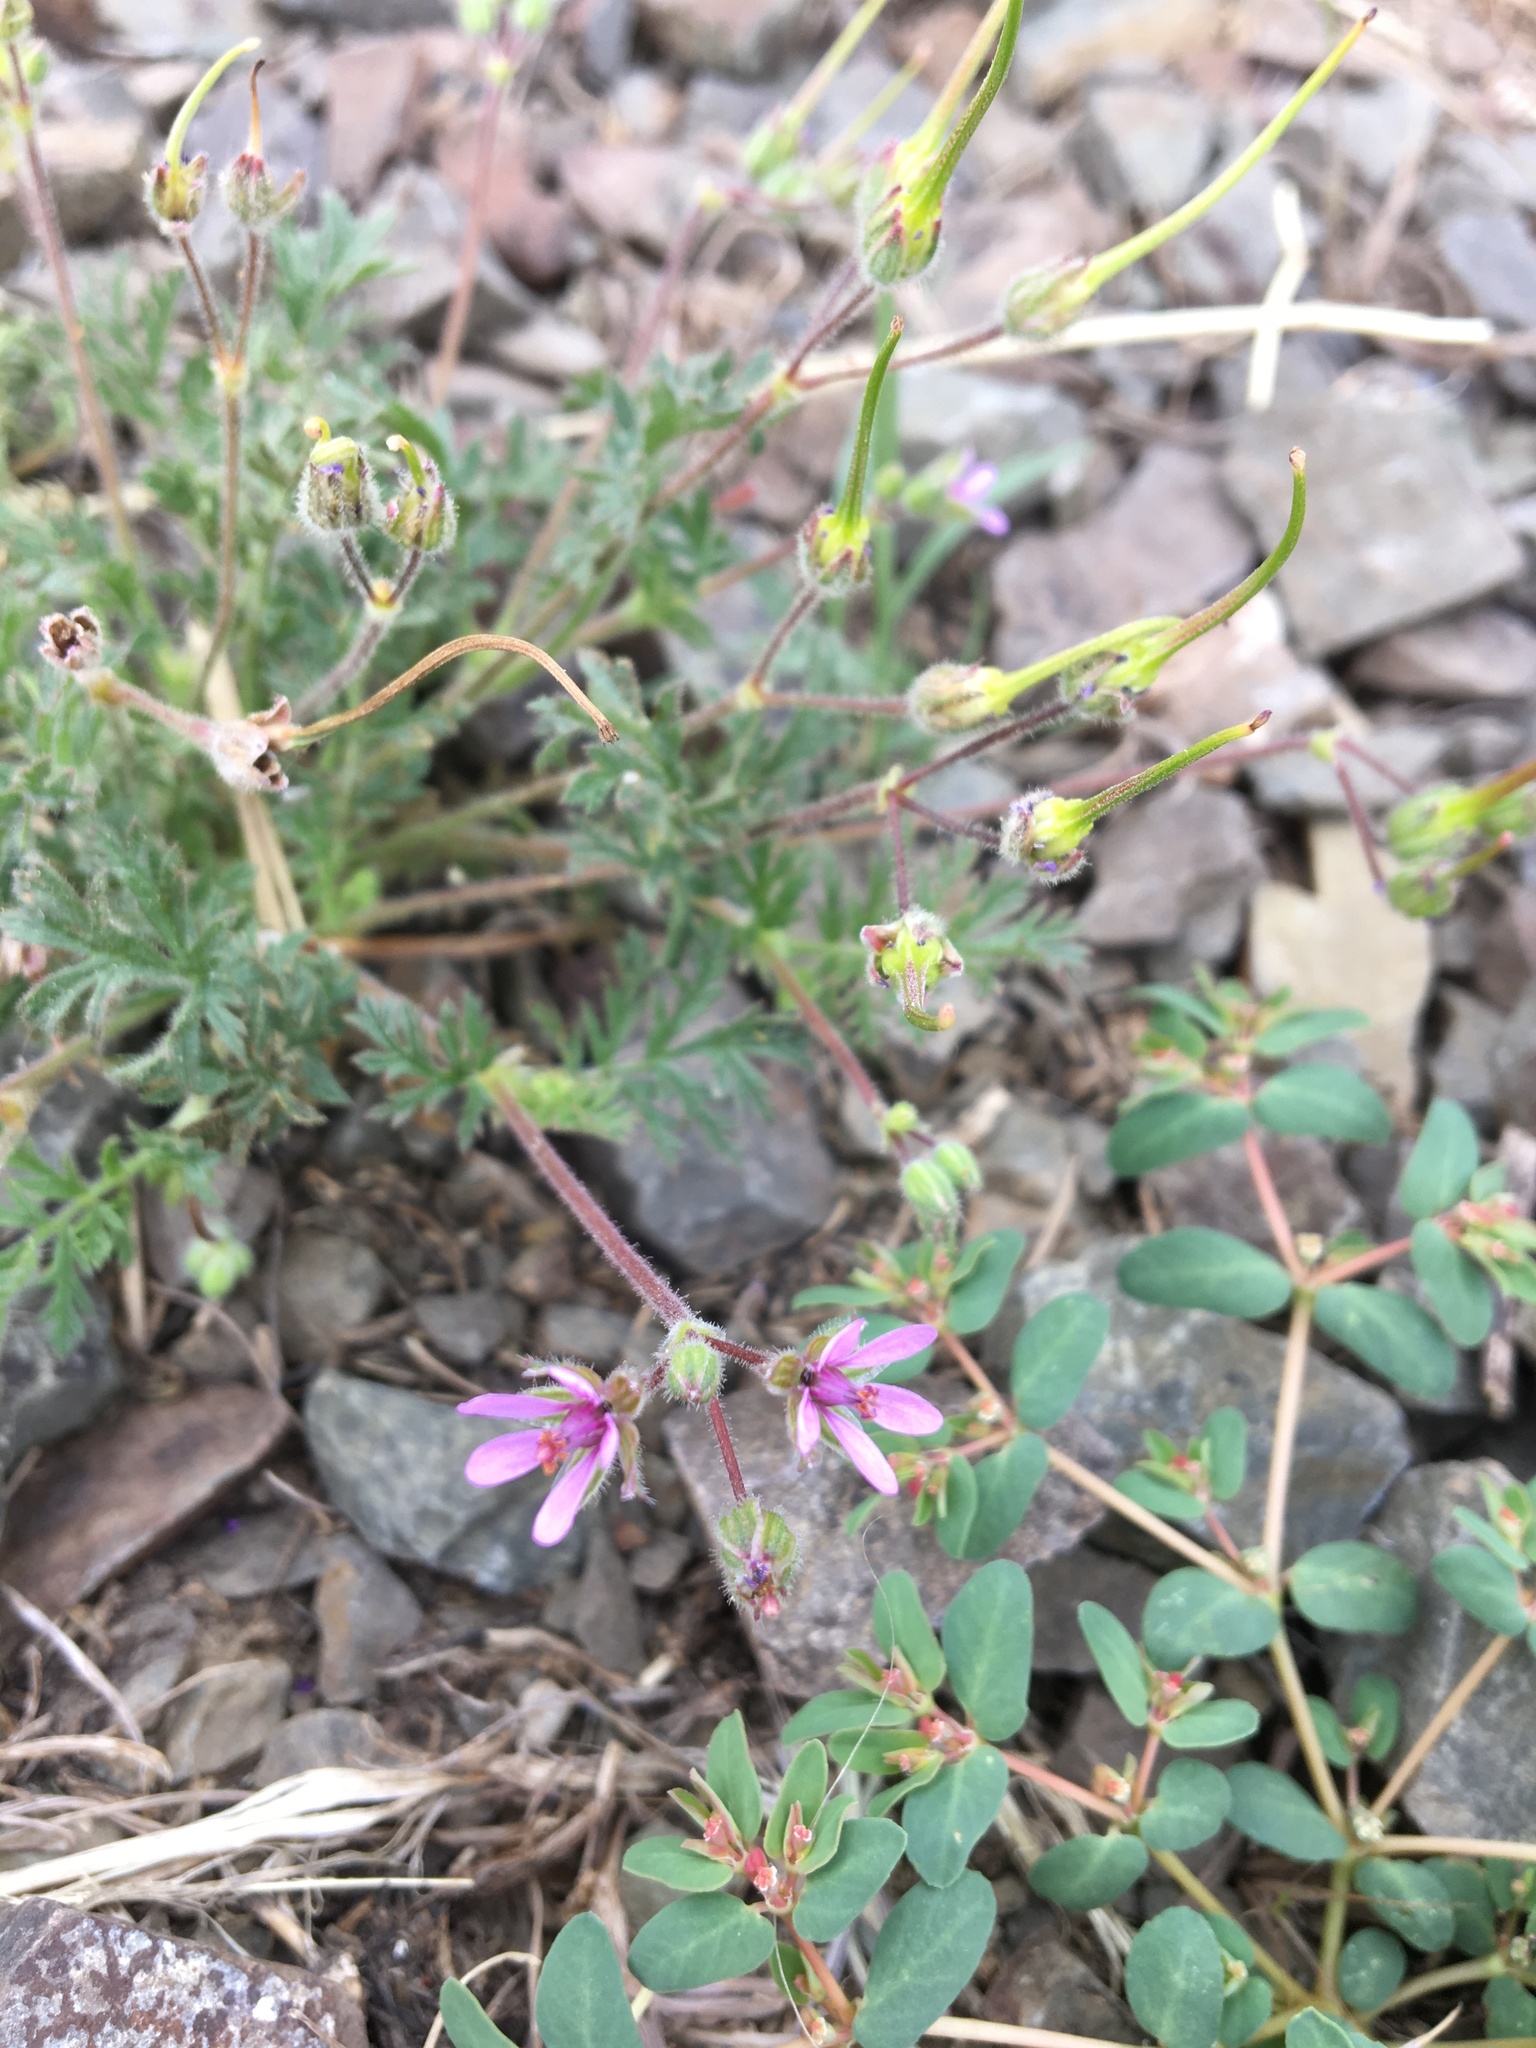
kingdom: Plantae
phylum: Tracheophyta
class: Magnoliopsida
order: Geraniales
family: Geraniaceae
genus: Erodium
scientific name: Erodium cicutarium
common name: Common stork's-bill
